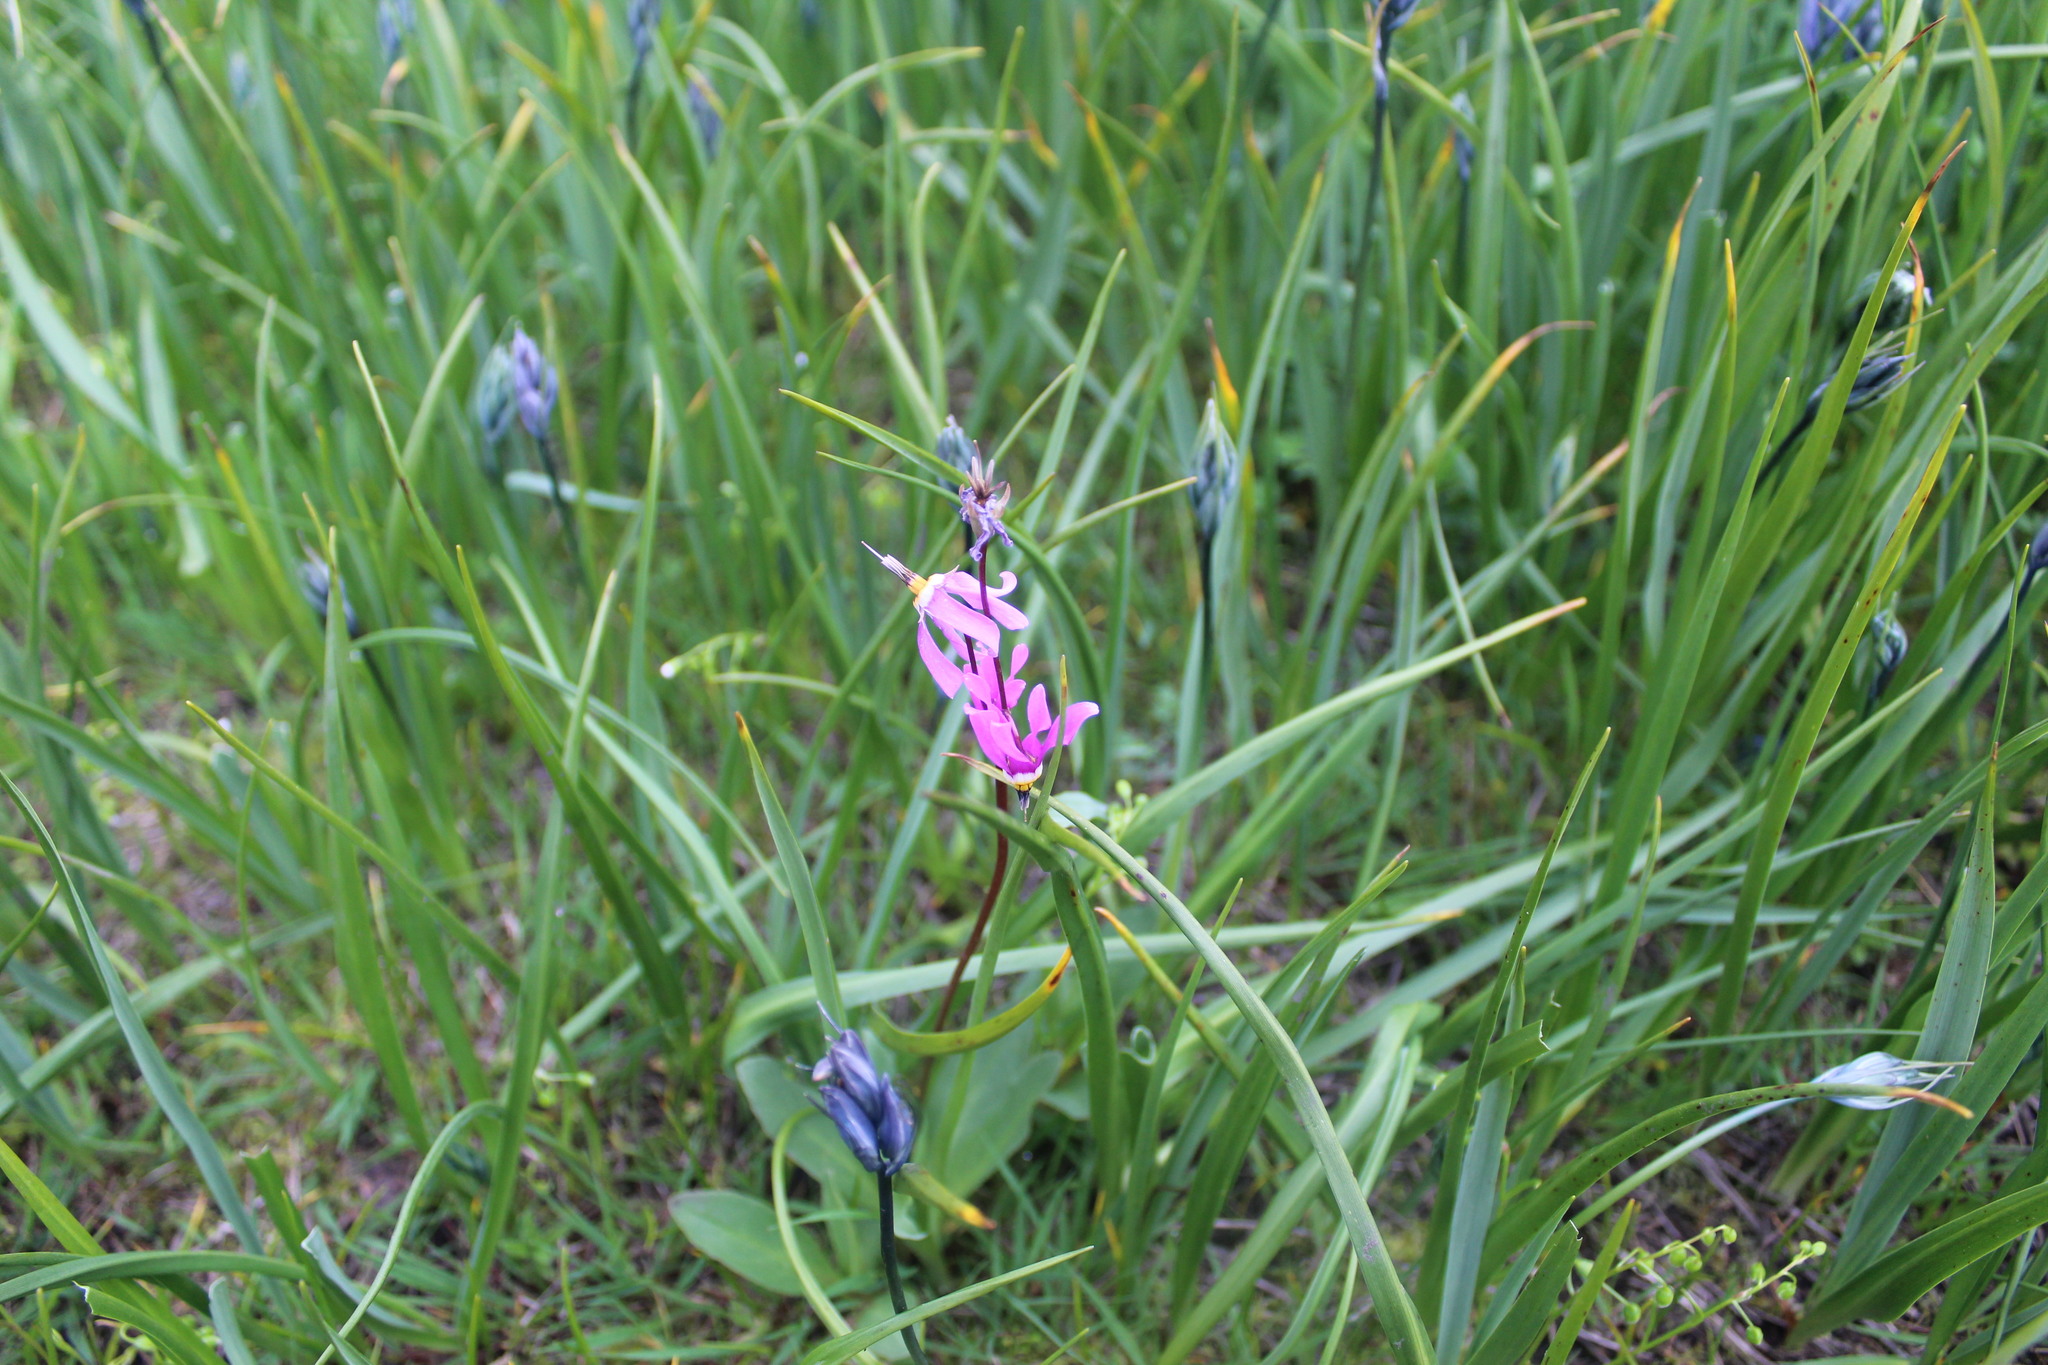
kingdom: Plantae
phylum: Tracheophyta
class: Magnoliopsida
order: Ericales
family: Primulaceae
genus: Dodecatheon
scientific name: Dodecatheon pulchellum
